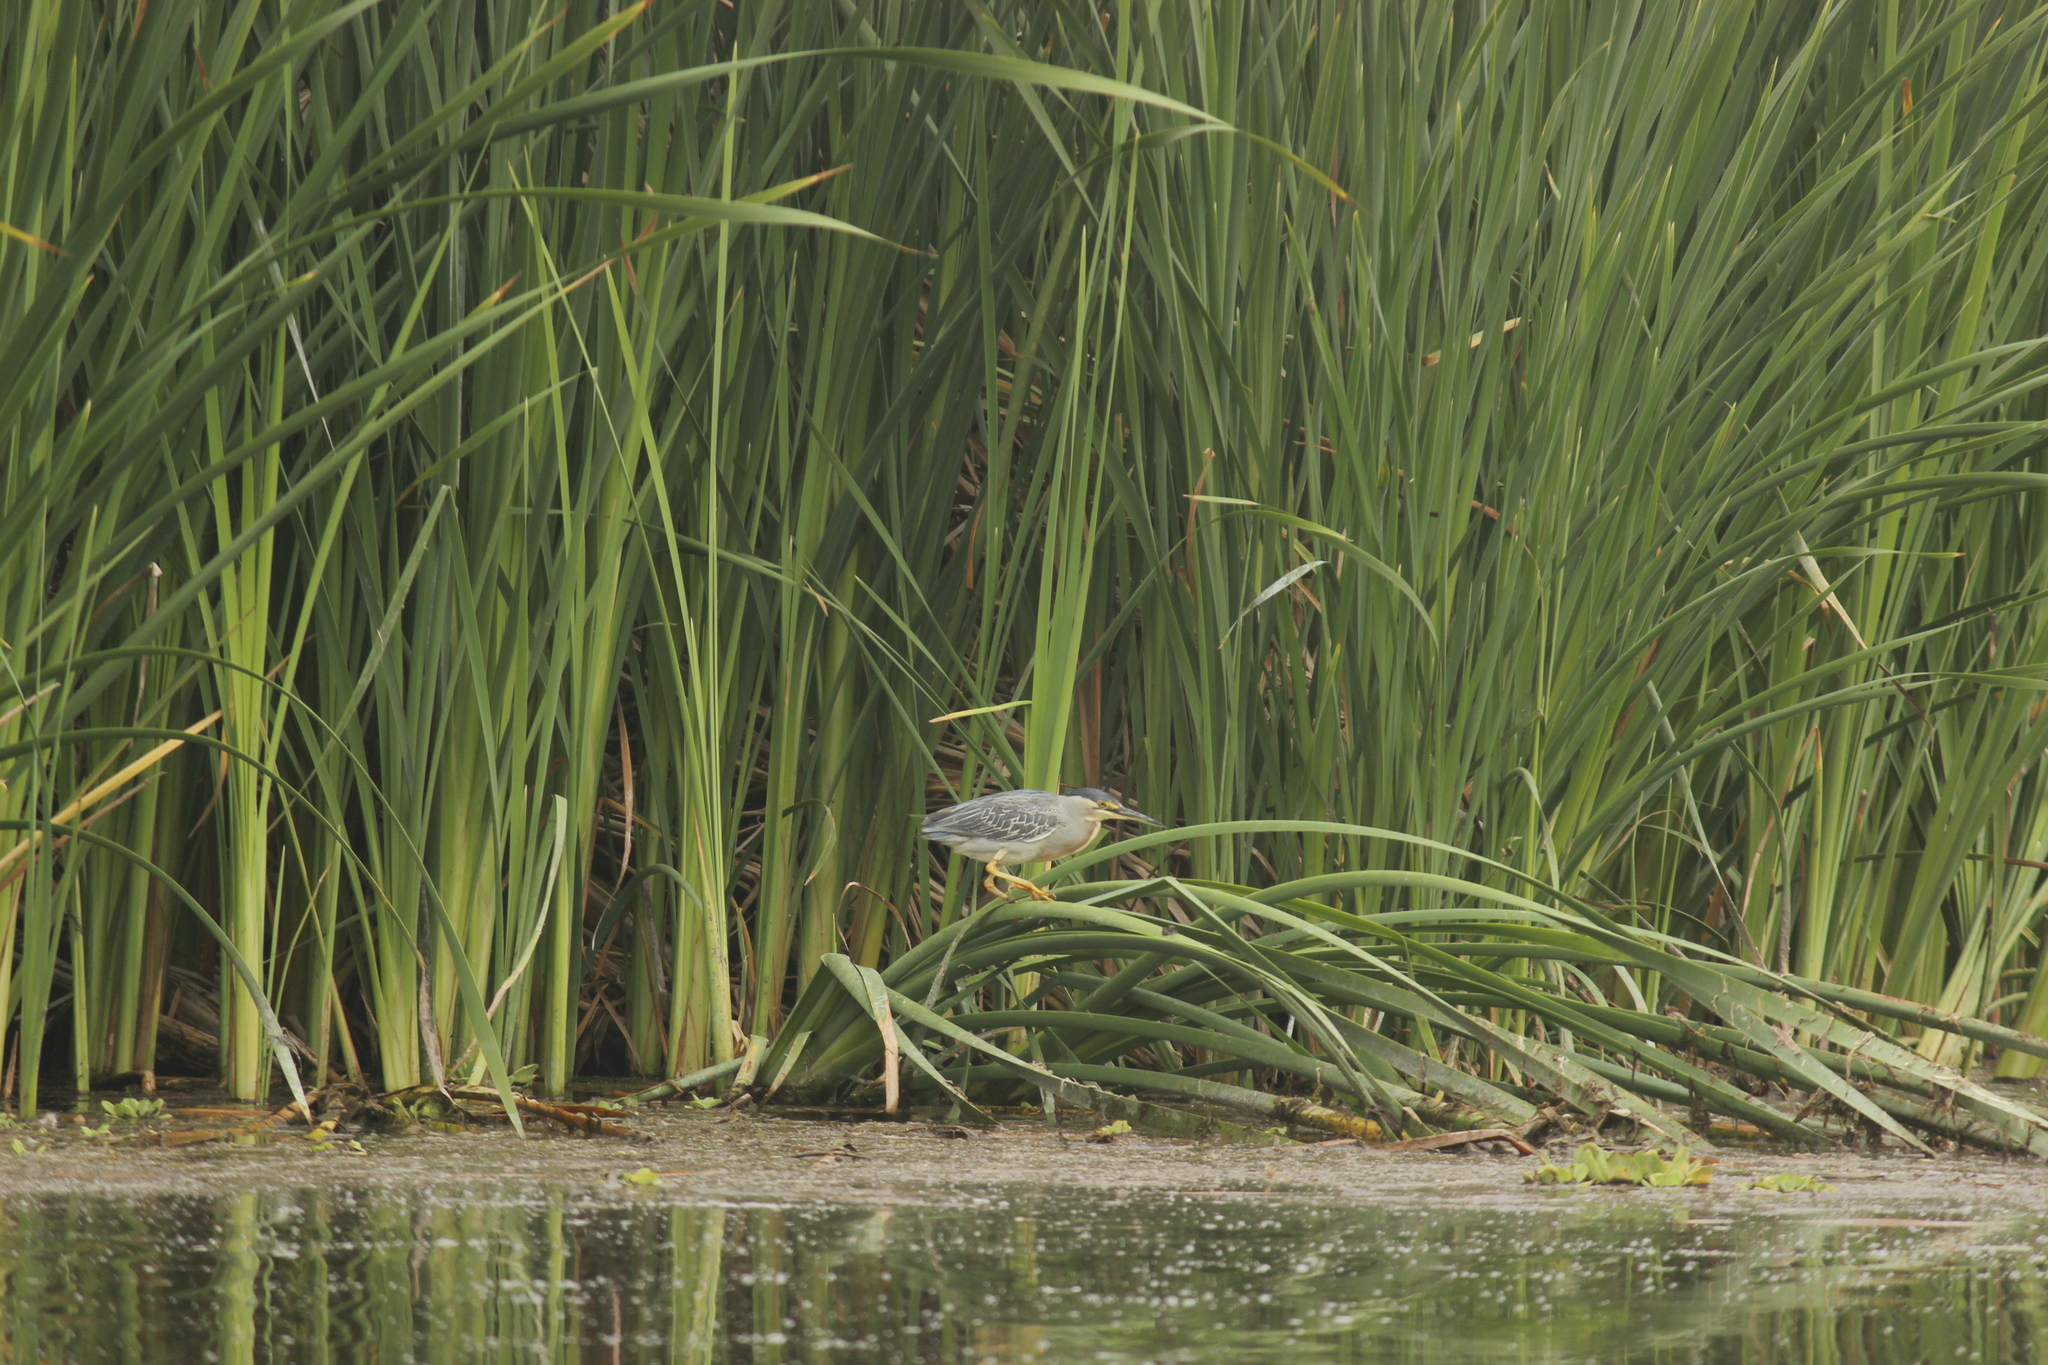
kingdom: Animalia
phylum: Chordata
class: Aves
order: Pelecaniformes
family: Ardeidae
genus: Butorides
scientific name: Butorides striata
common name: Striated heron
